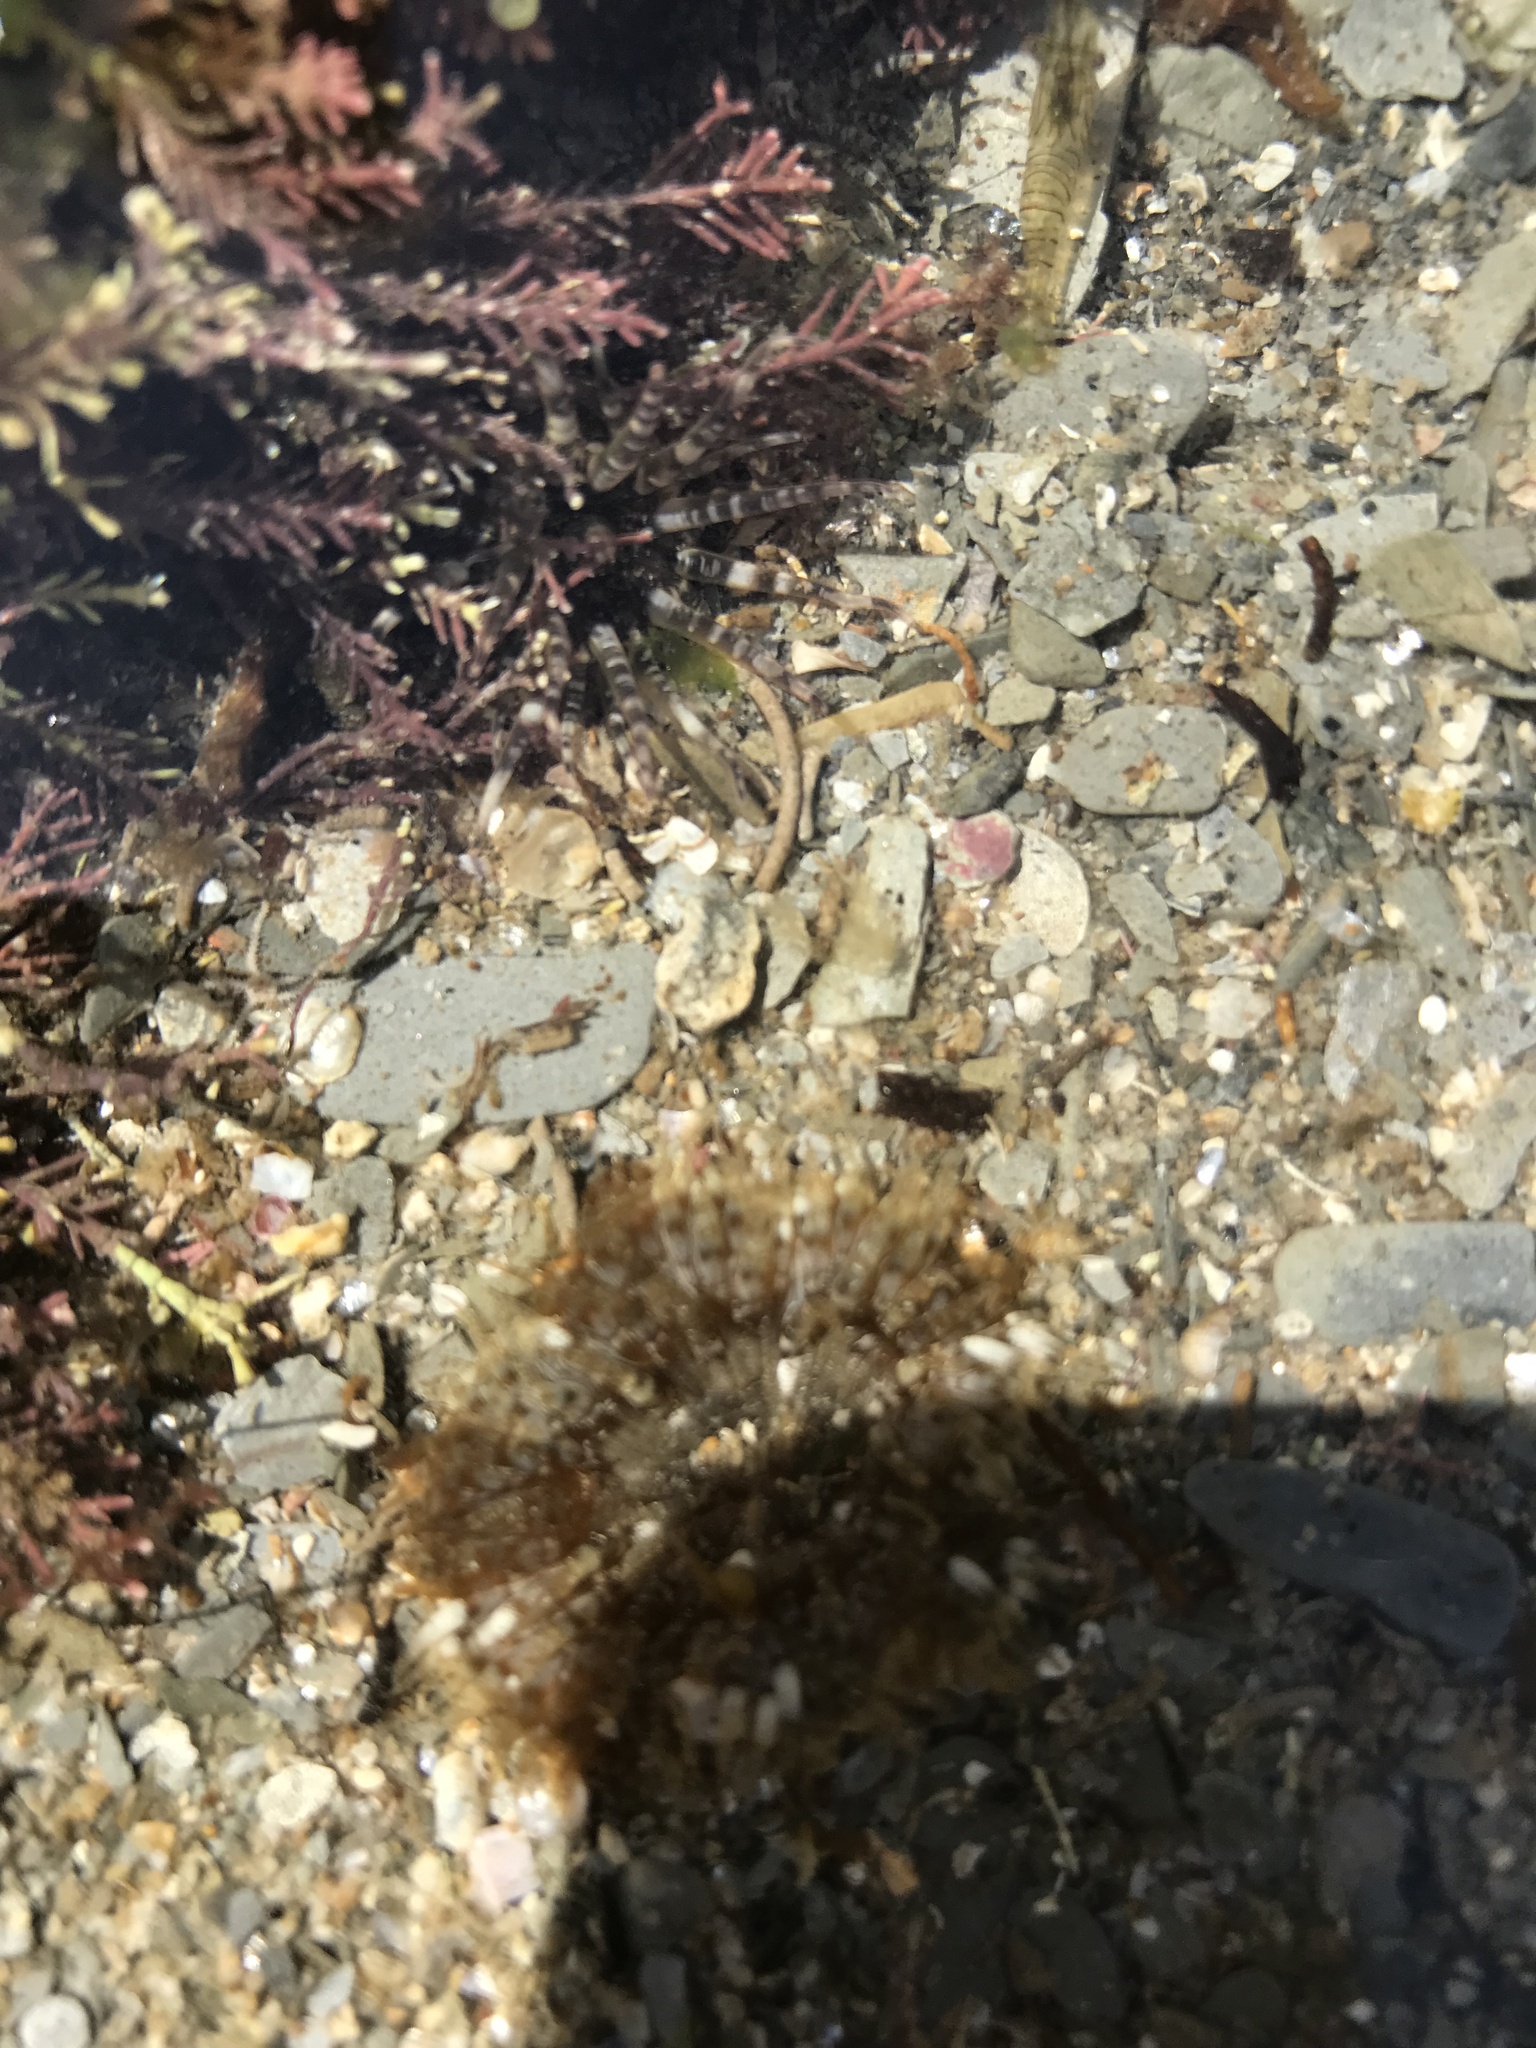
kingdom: Animalia
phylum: Cnidaria
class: Anthozoa
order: Actiniaria
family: Sagartiidae
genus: Cereus
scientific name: Cereus pedunculatus
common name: Daisy anemone
